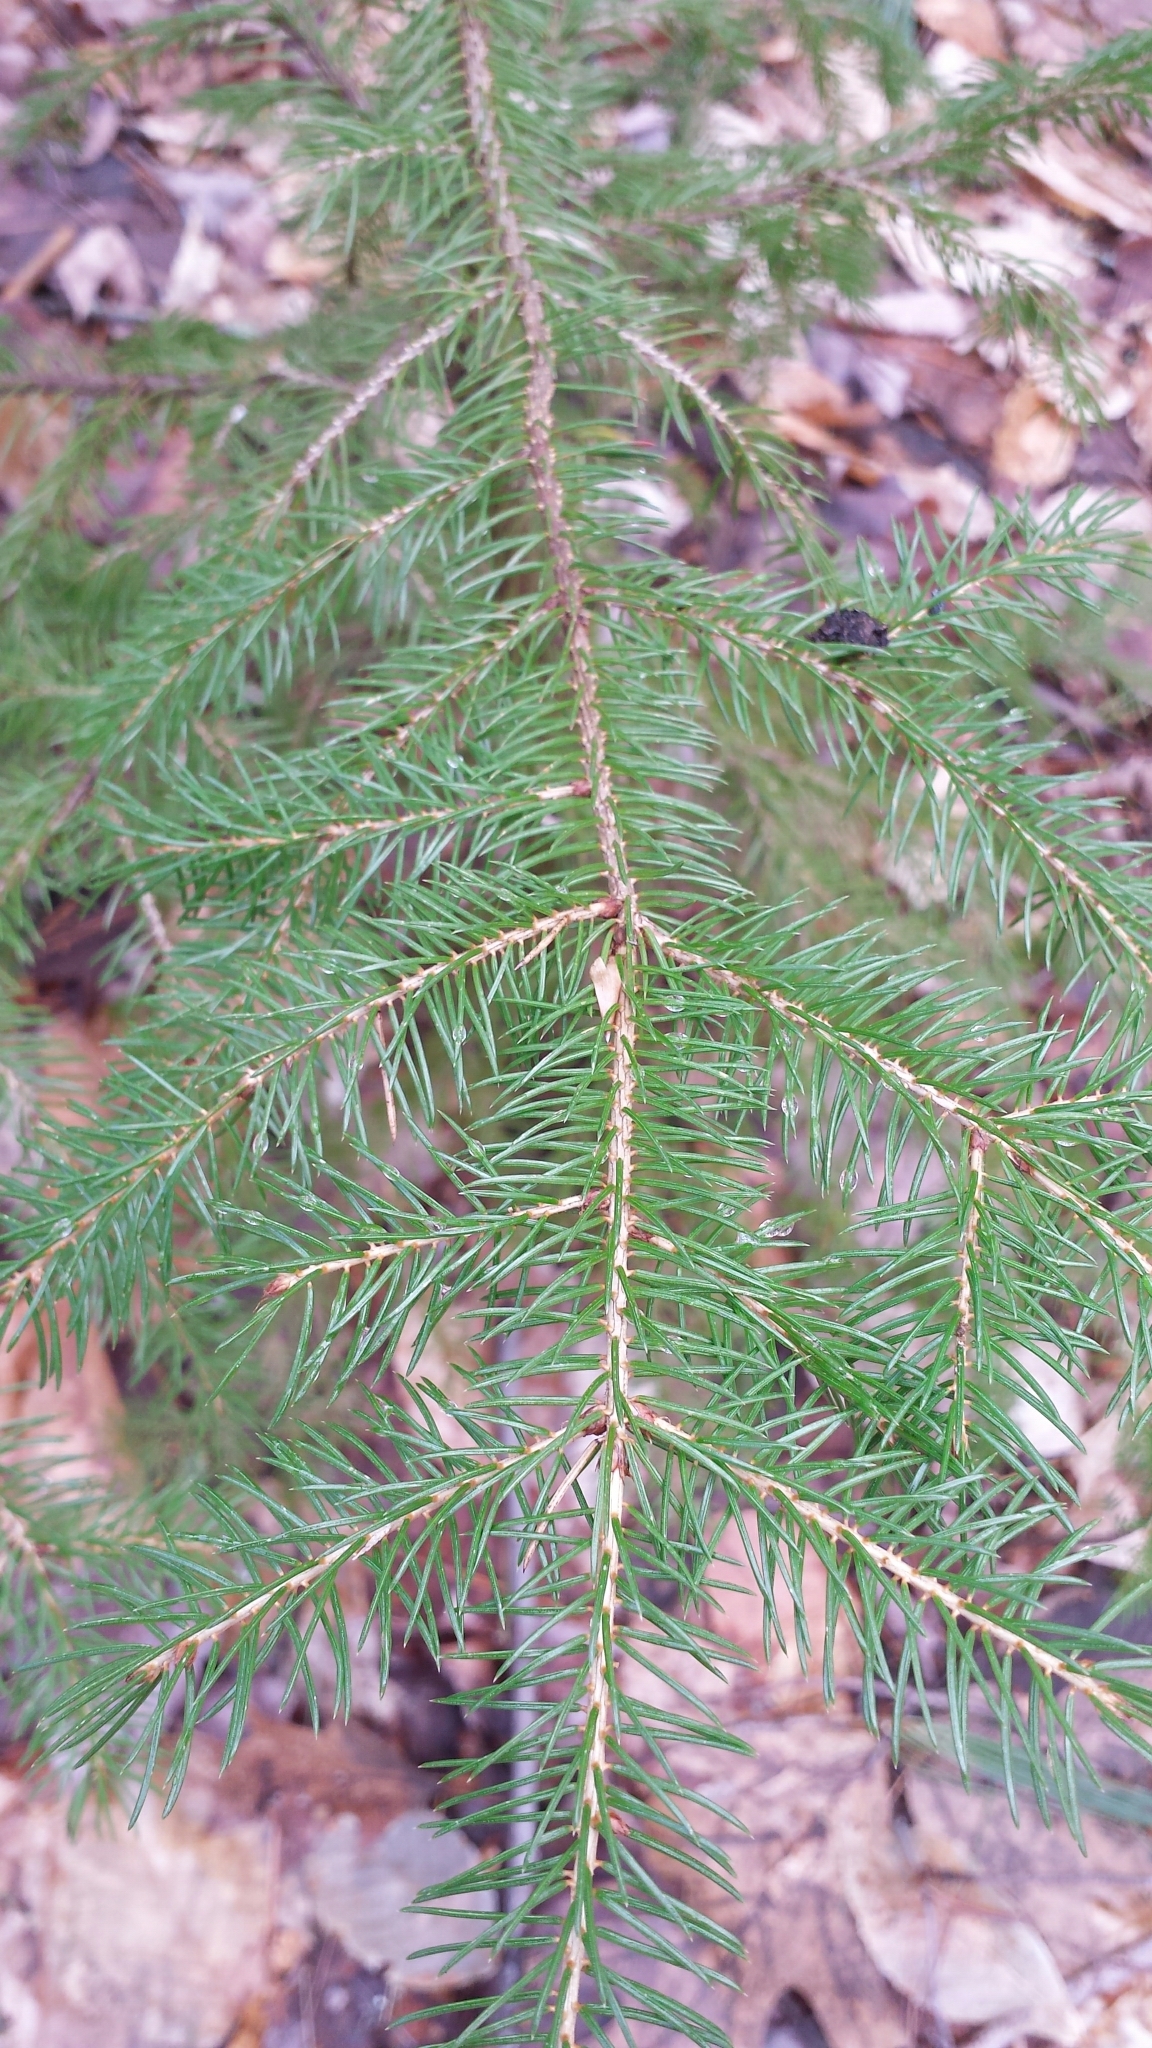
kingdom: Plantae
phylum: Tracheophyta
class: Pinopsida
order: Pinales
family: Pinaceae
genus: Picea
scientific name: Picea rubens
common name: Red spruce
